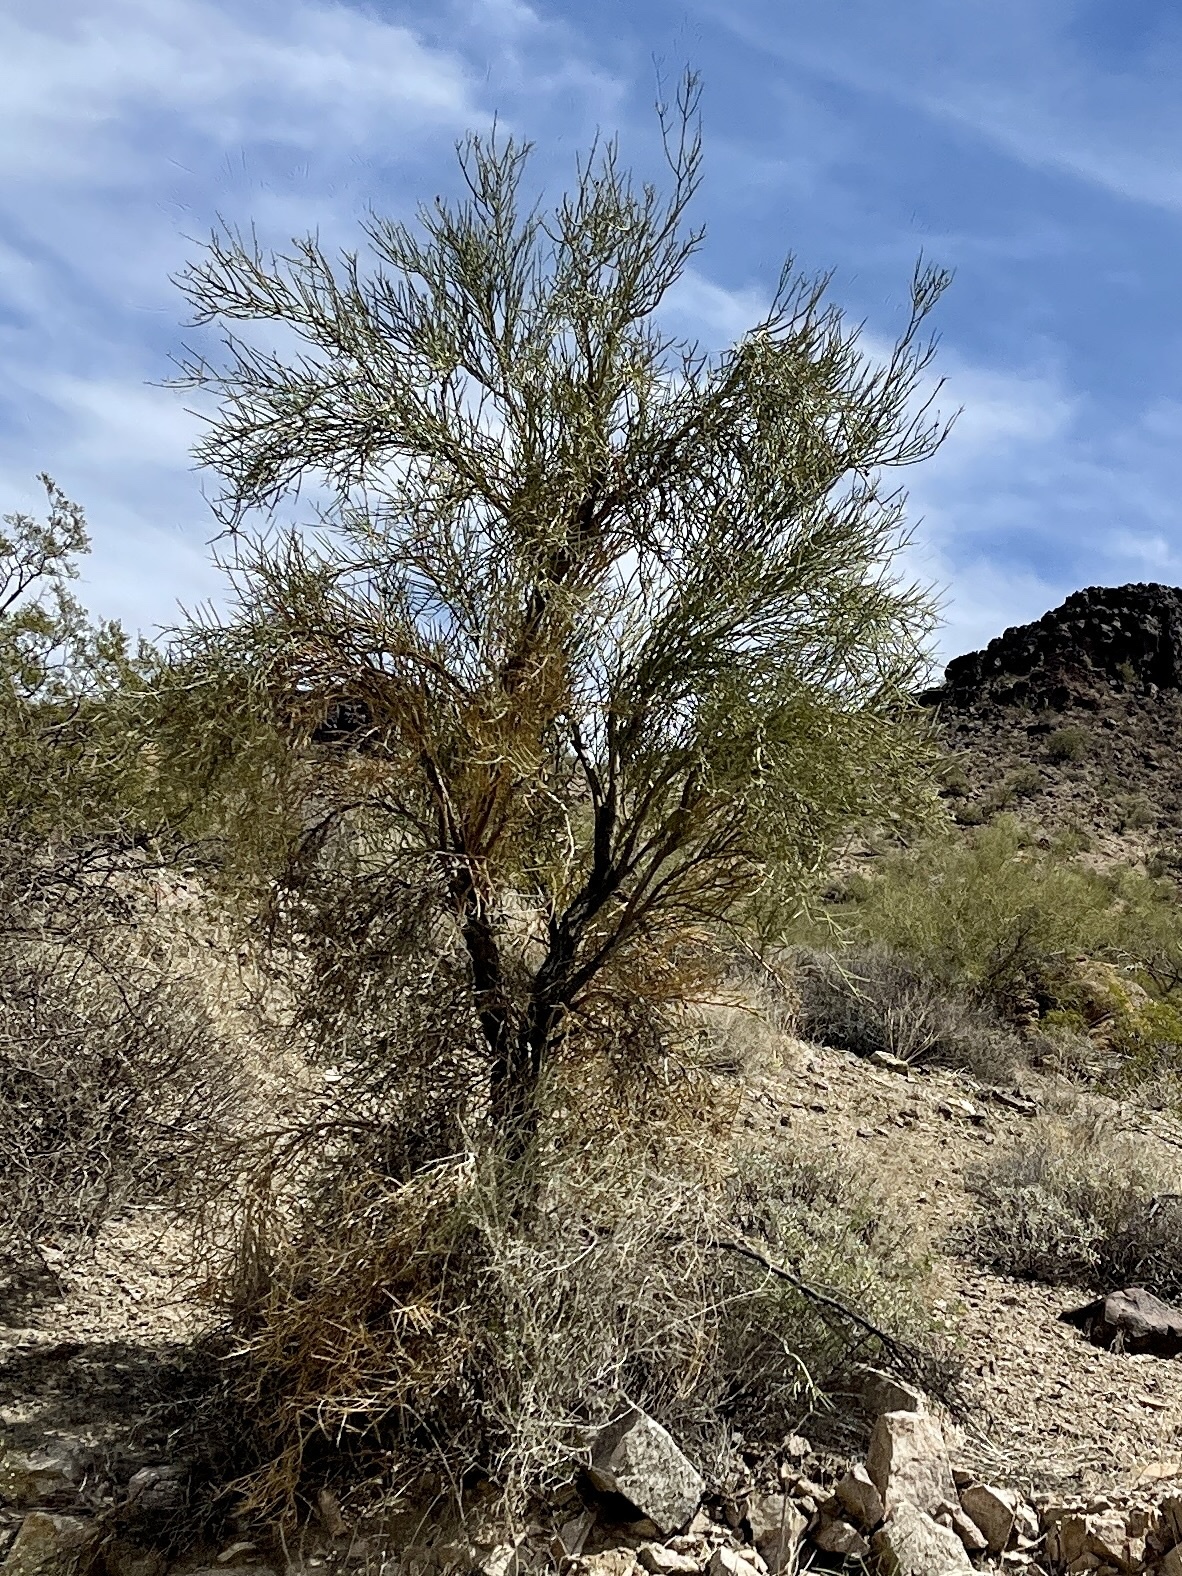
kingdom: Plantae
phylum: Tracheophyta
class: Magnoliopsida
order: Celastrales
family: Celastraceae
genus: Canotia
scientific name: Canotia holacantha
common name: Crucifixion thorns
